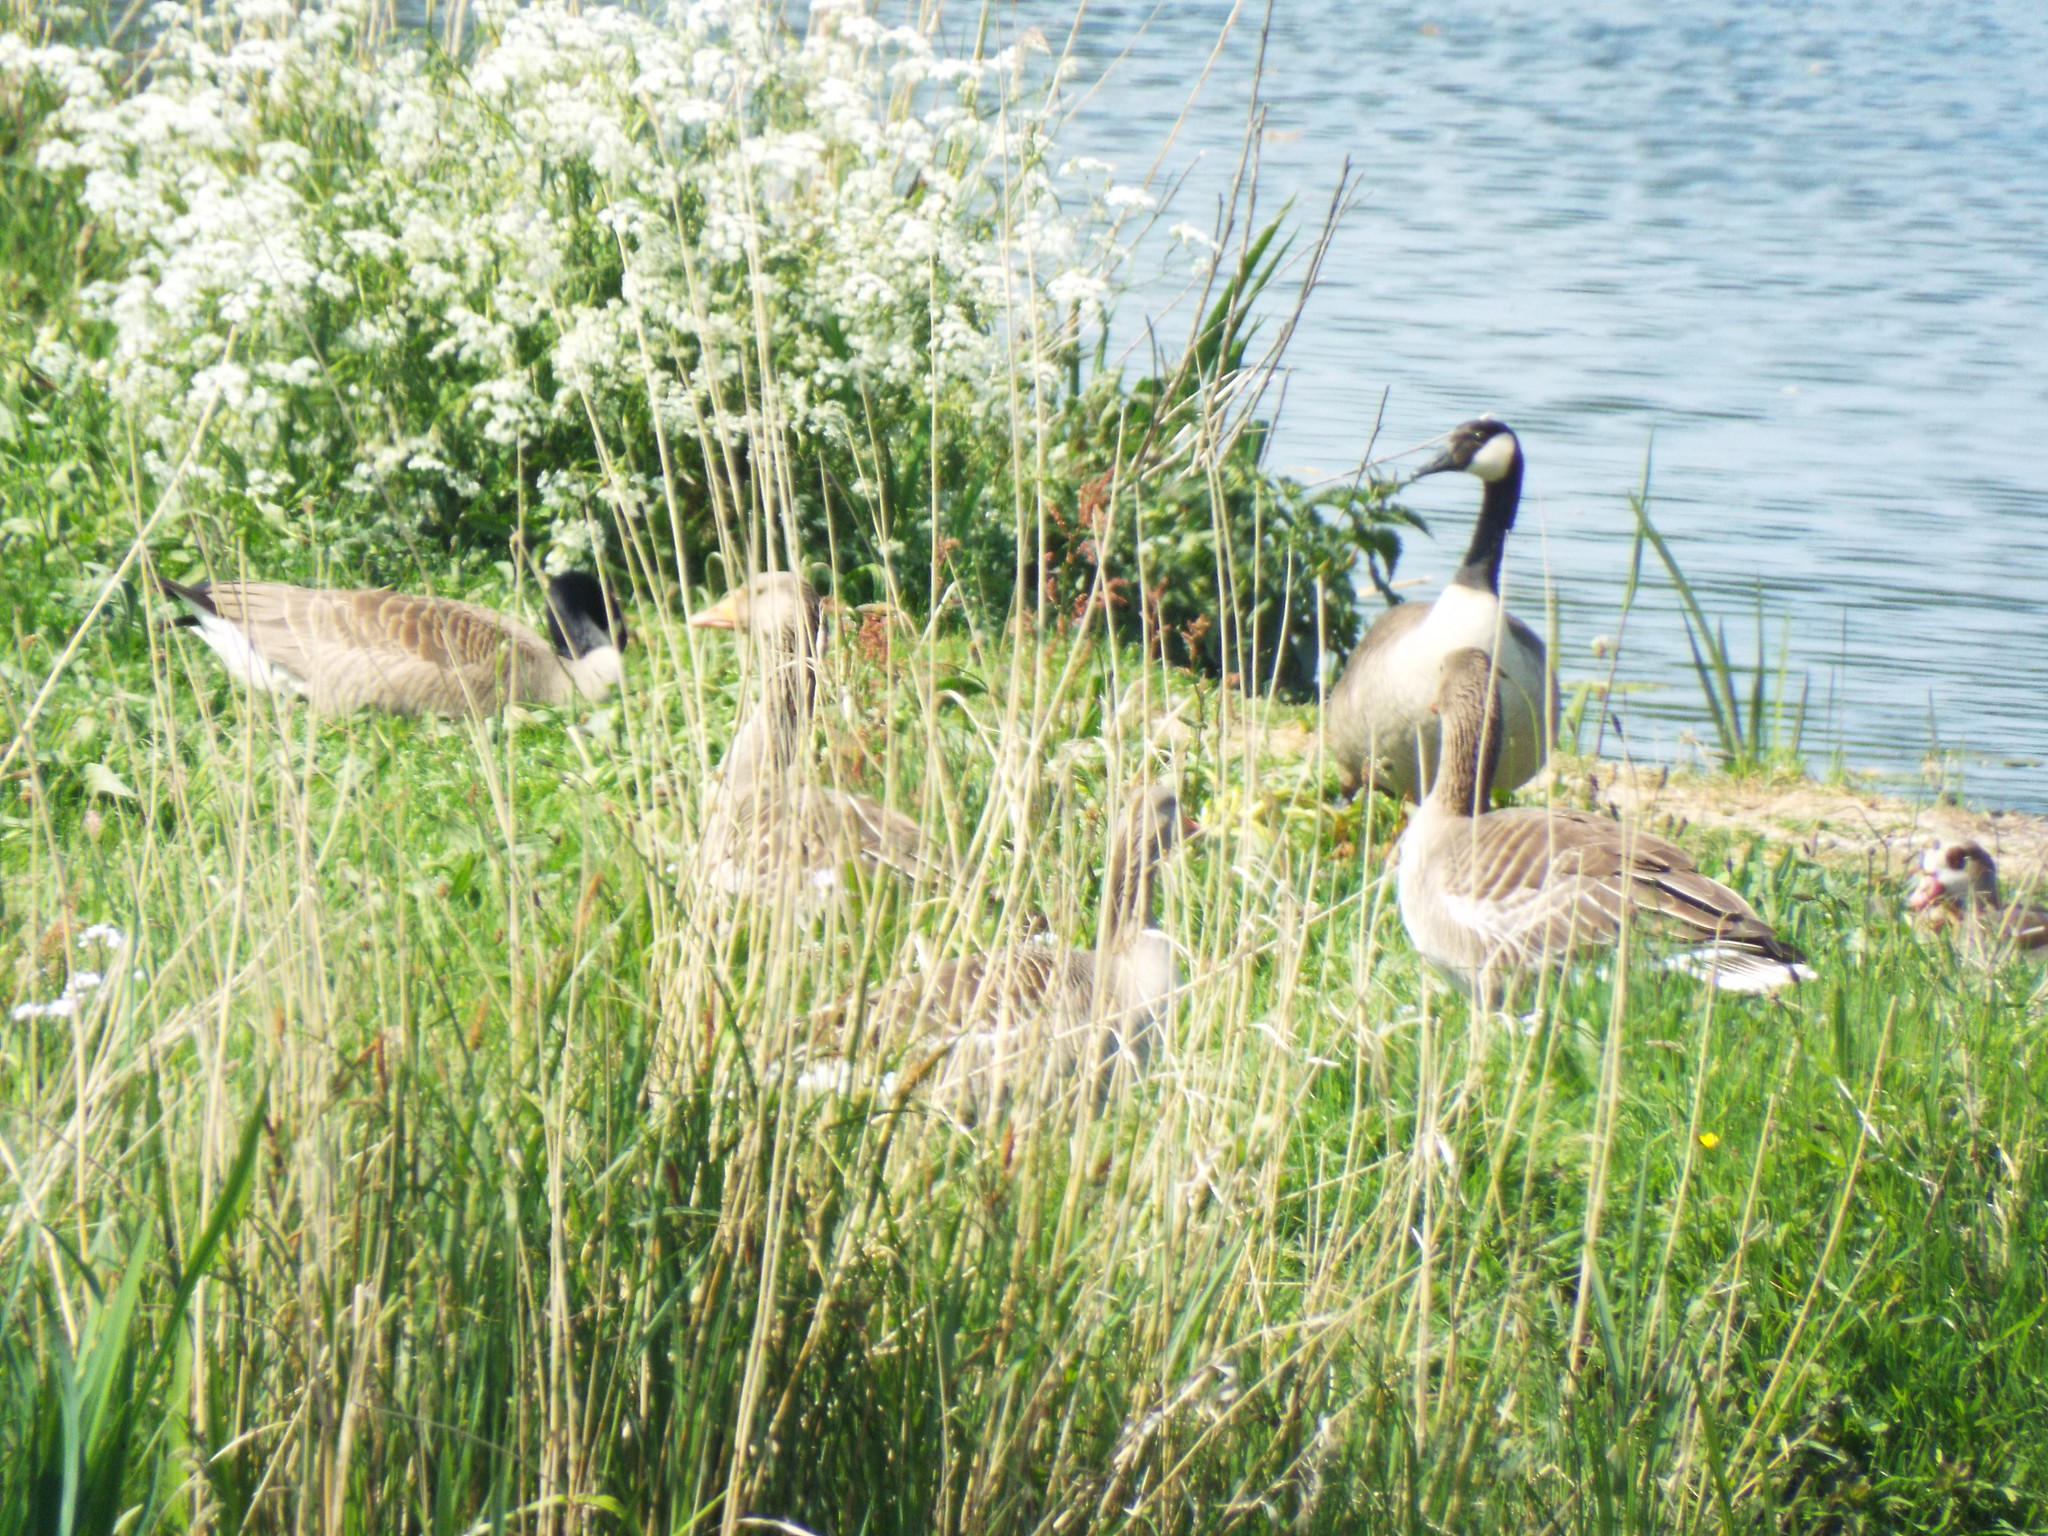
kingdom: Animalia
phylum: Chordata
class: Aves
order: Anseriformes
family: Anatidae
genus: Branta
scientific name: Branta canadensis
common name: Canada goose
